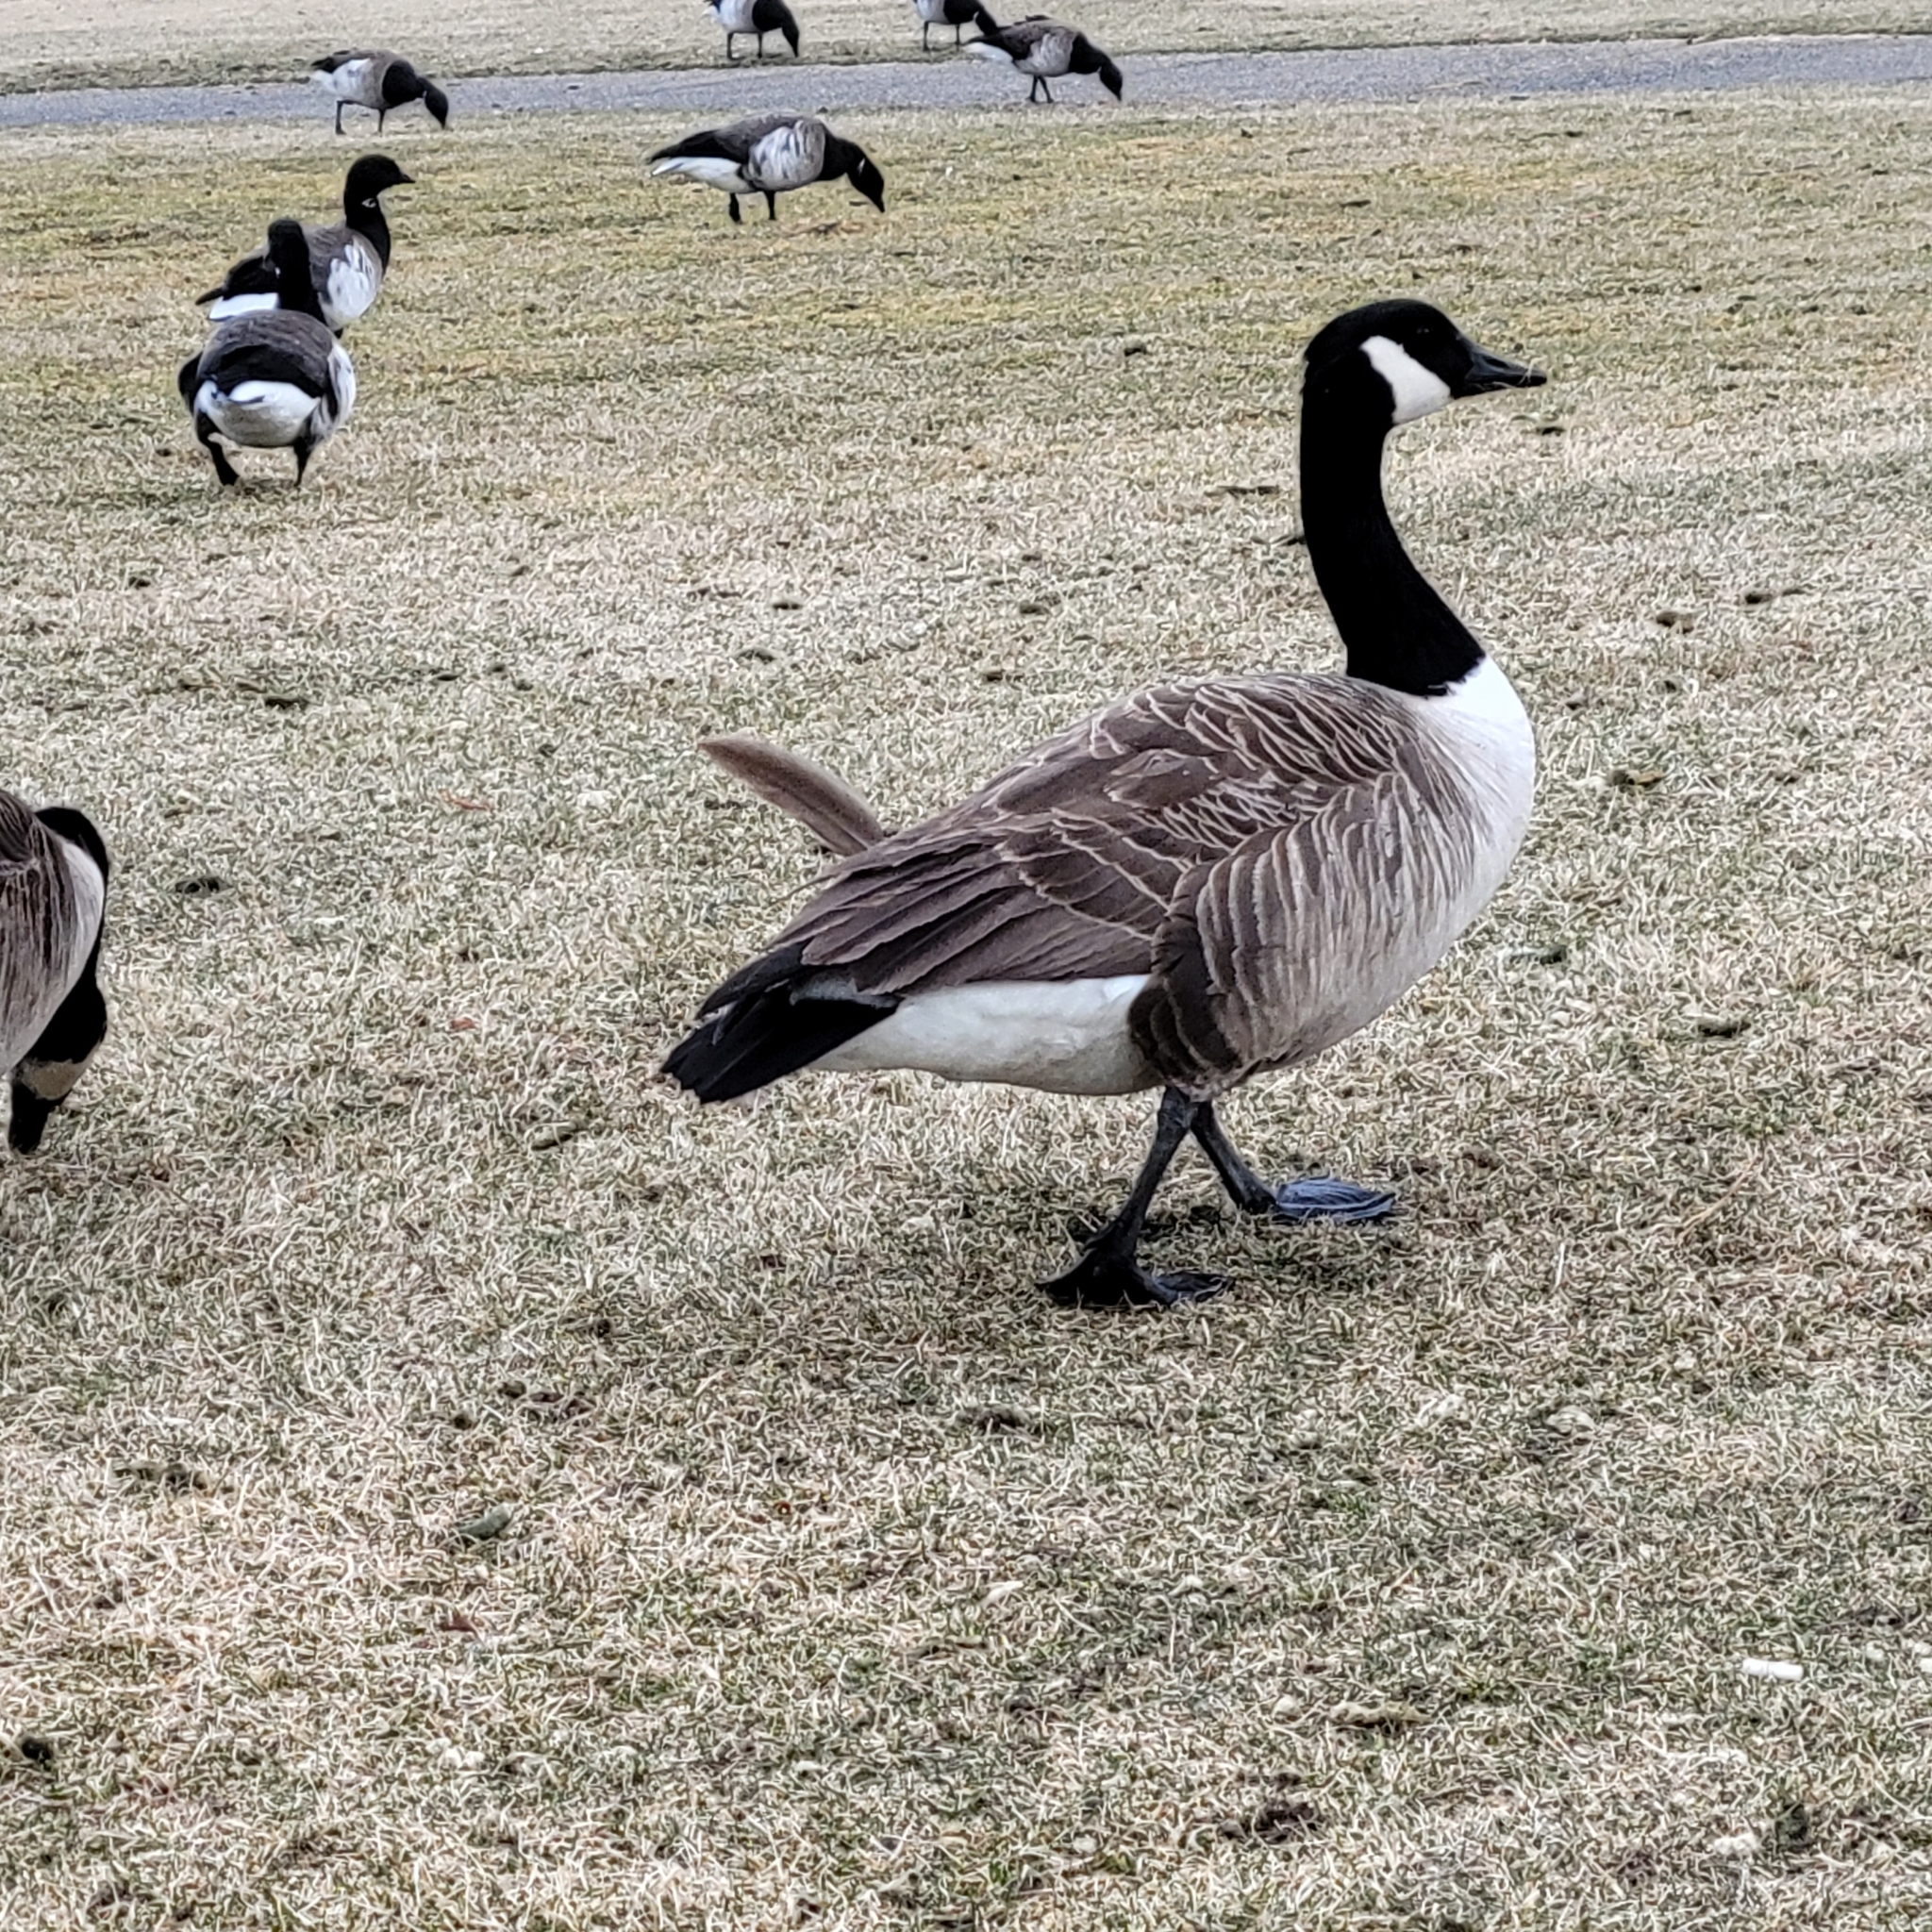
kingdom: Animalia
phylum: Chordata
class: Aves
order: Anseriformes
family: Anatidae
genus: Branta
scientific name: Branta canadensis
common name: Canada goose
